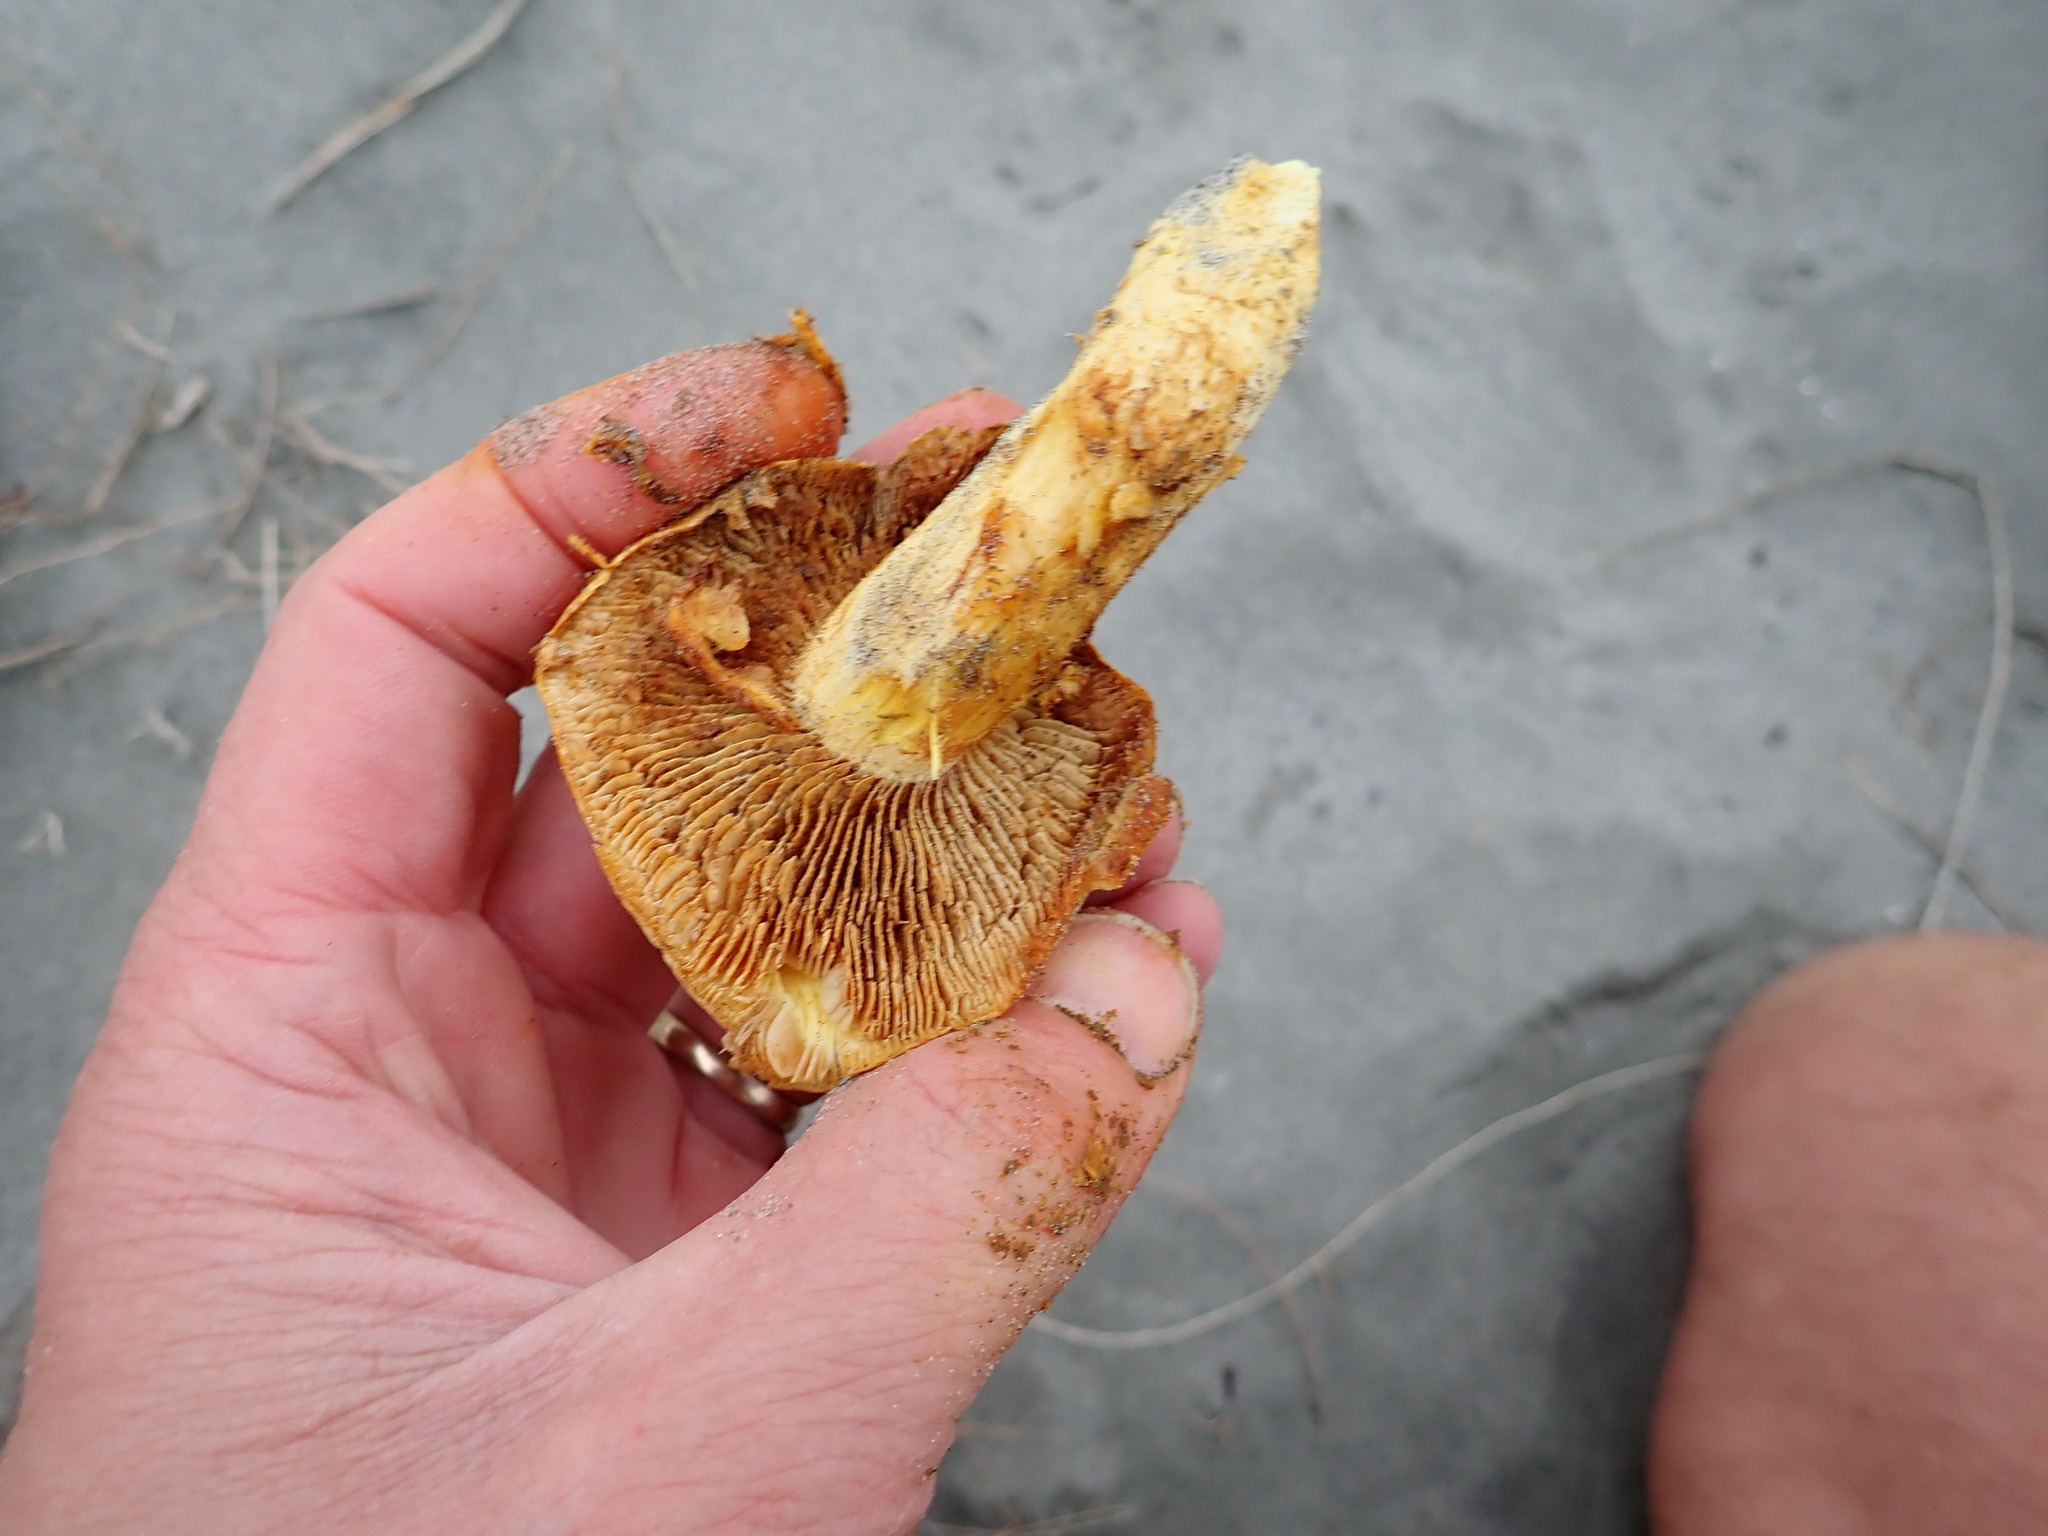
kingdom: Fungi
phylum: Basidiomycota
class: Agaricomycetes
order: Agaricales
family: Hymenogastraceae
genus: Gymnopilus
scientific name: Gymnopilus junonius
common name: Spectacular rustgill
